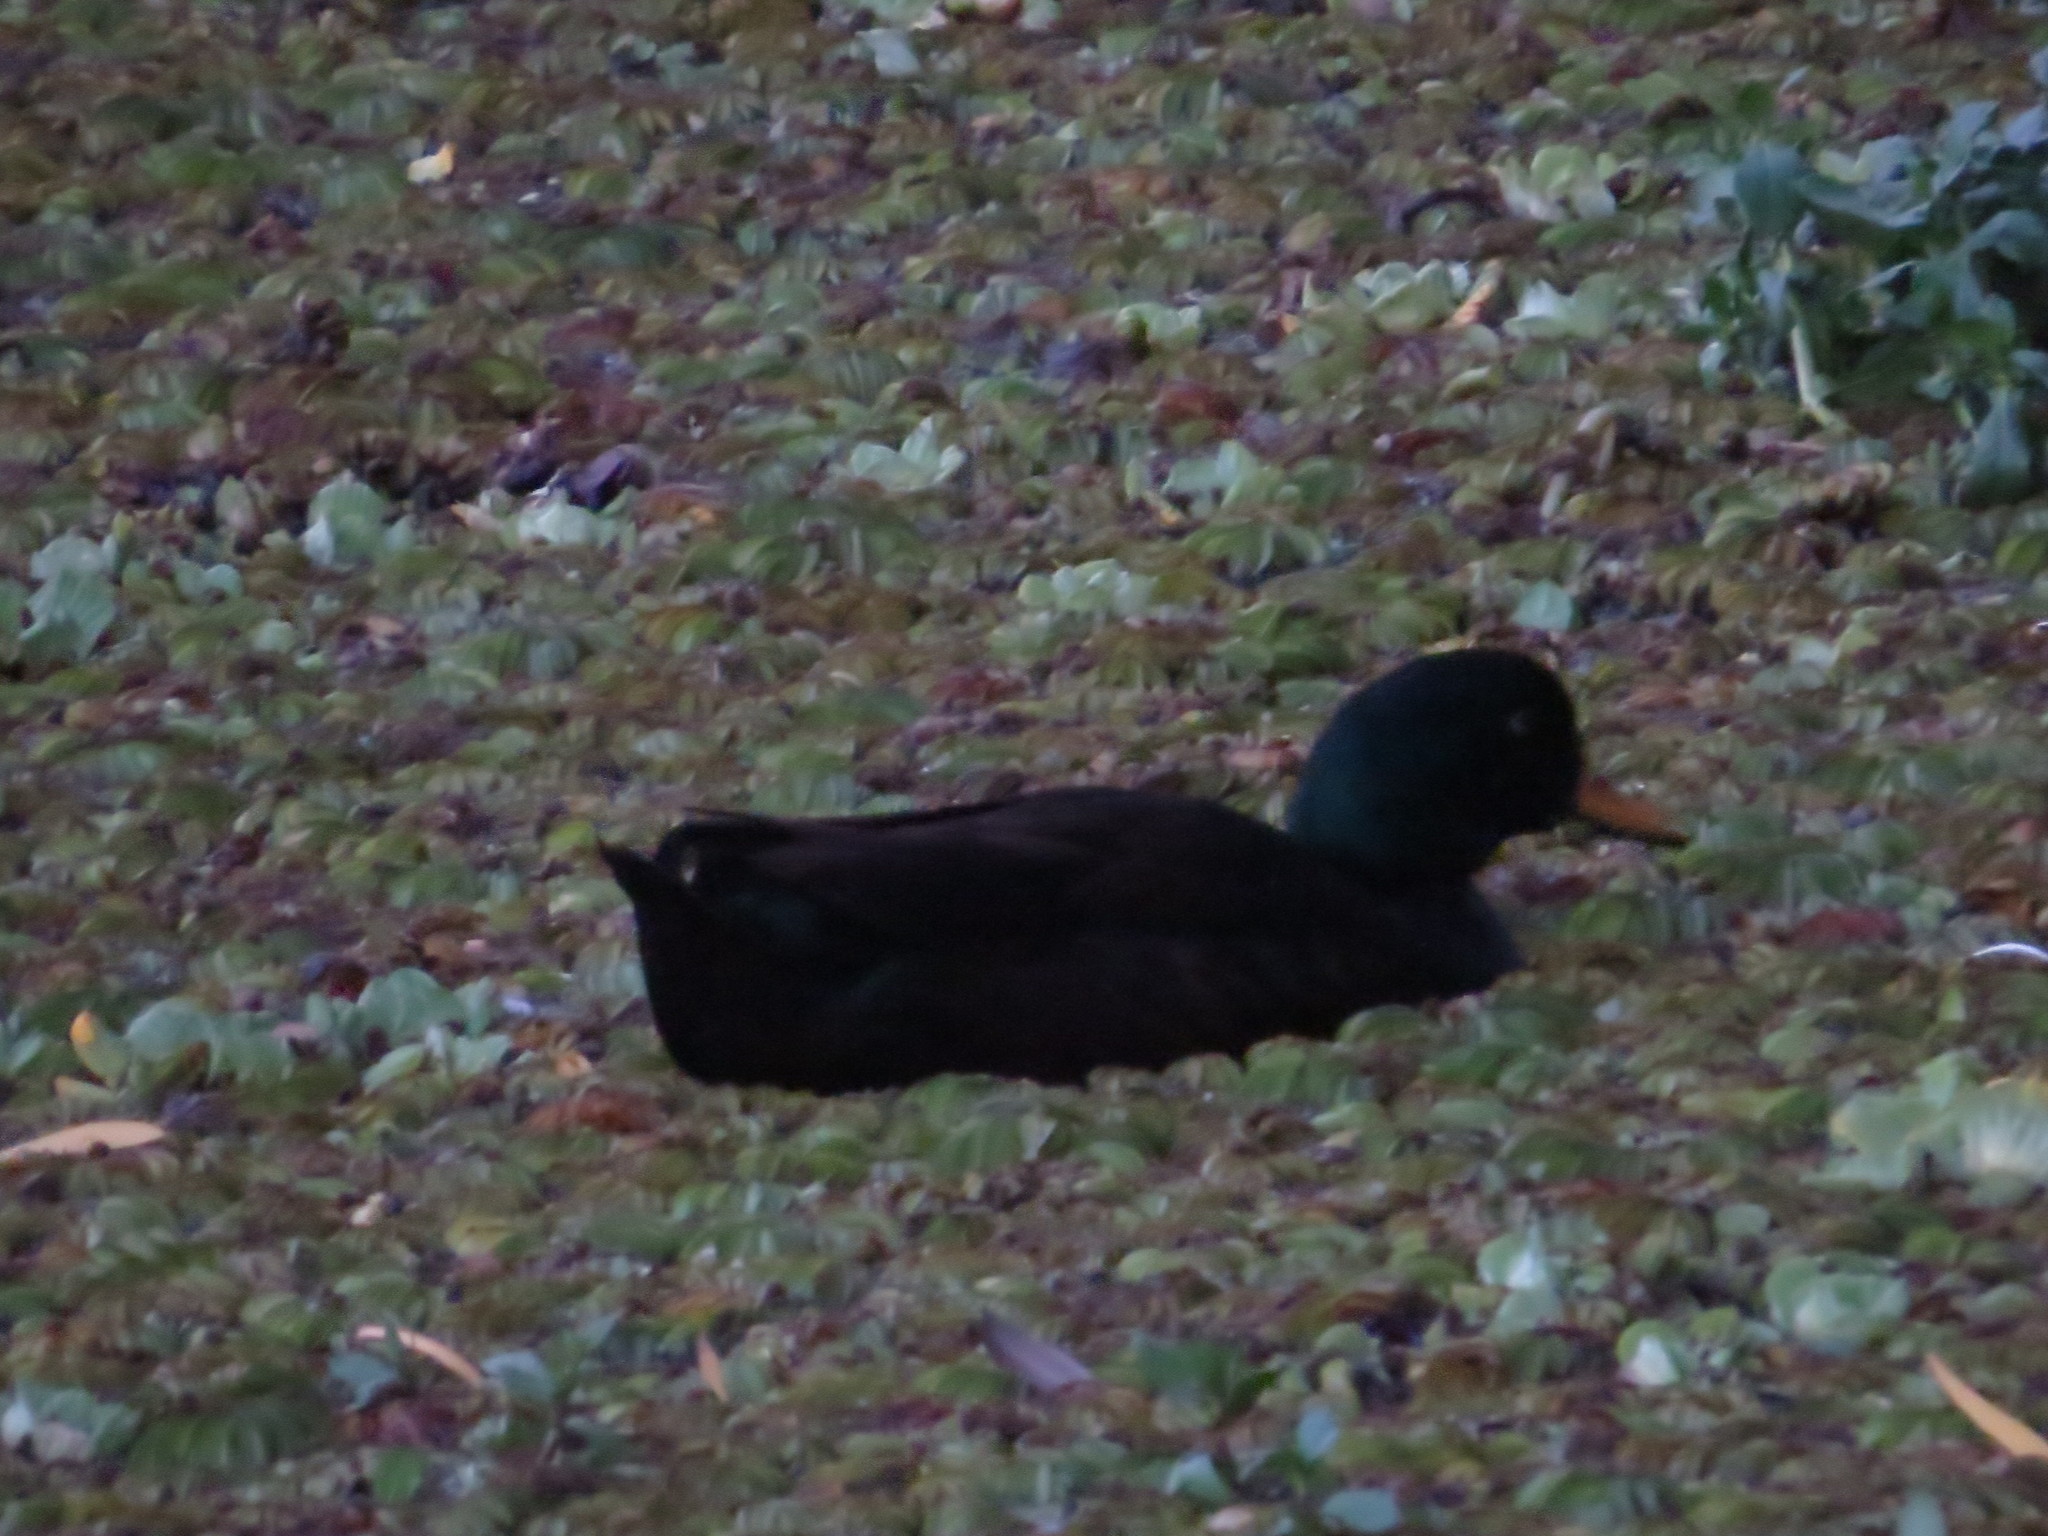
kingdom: Animalia
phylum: Chordata
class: Aves
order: Anseriformes
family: Anatidae
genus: Anas
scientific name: Anas platyrhynchos
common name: Mallard
